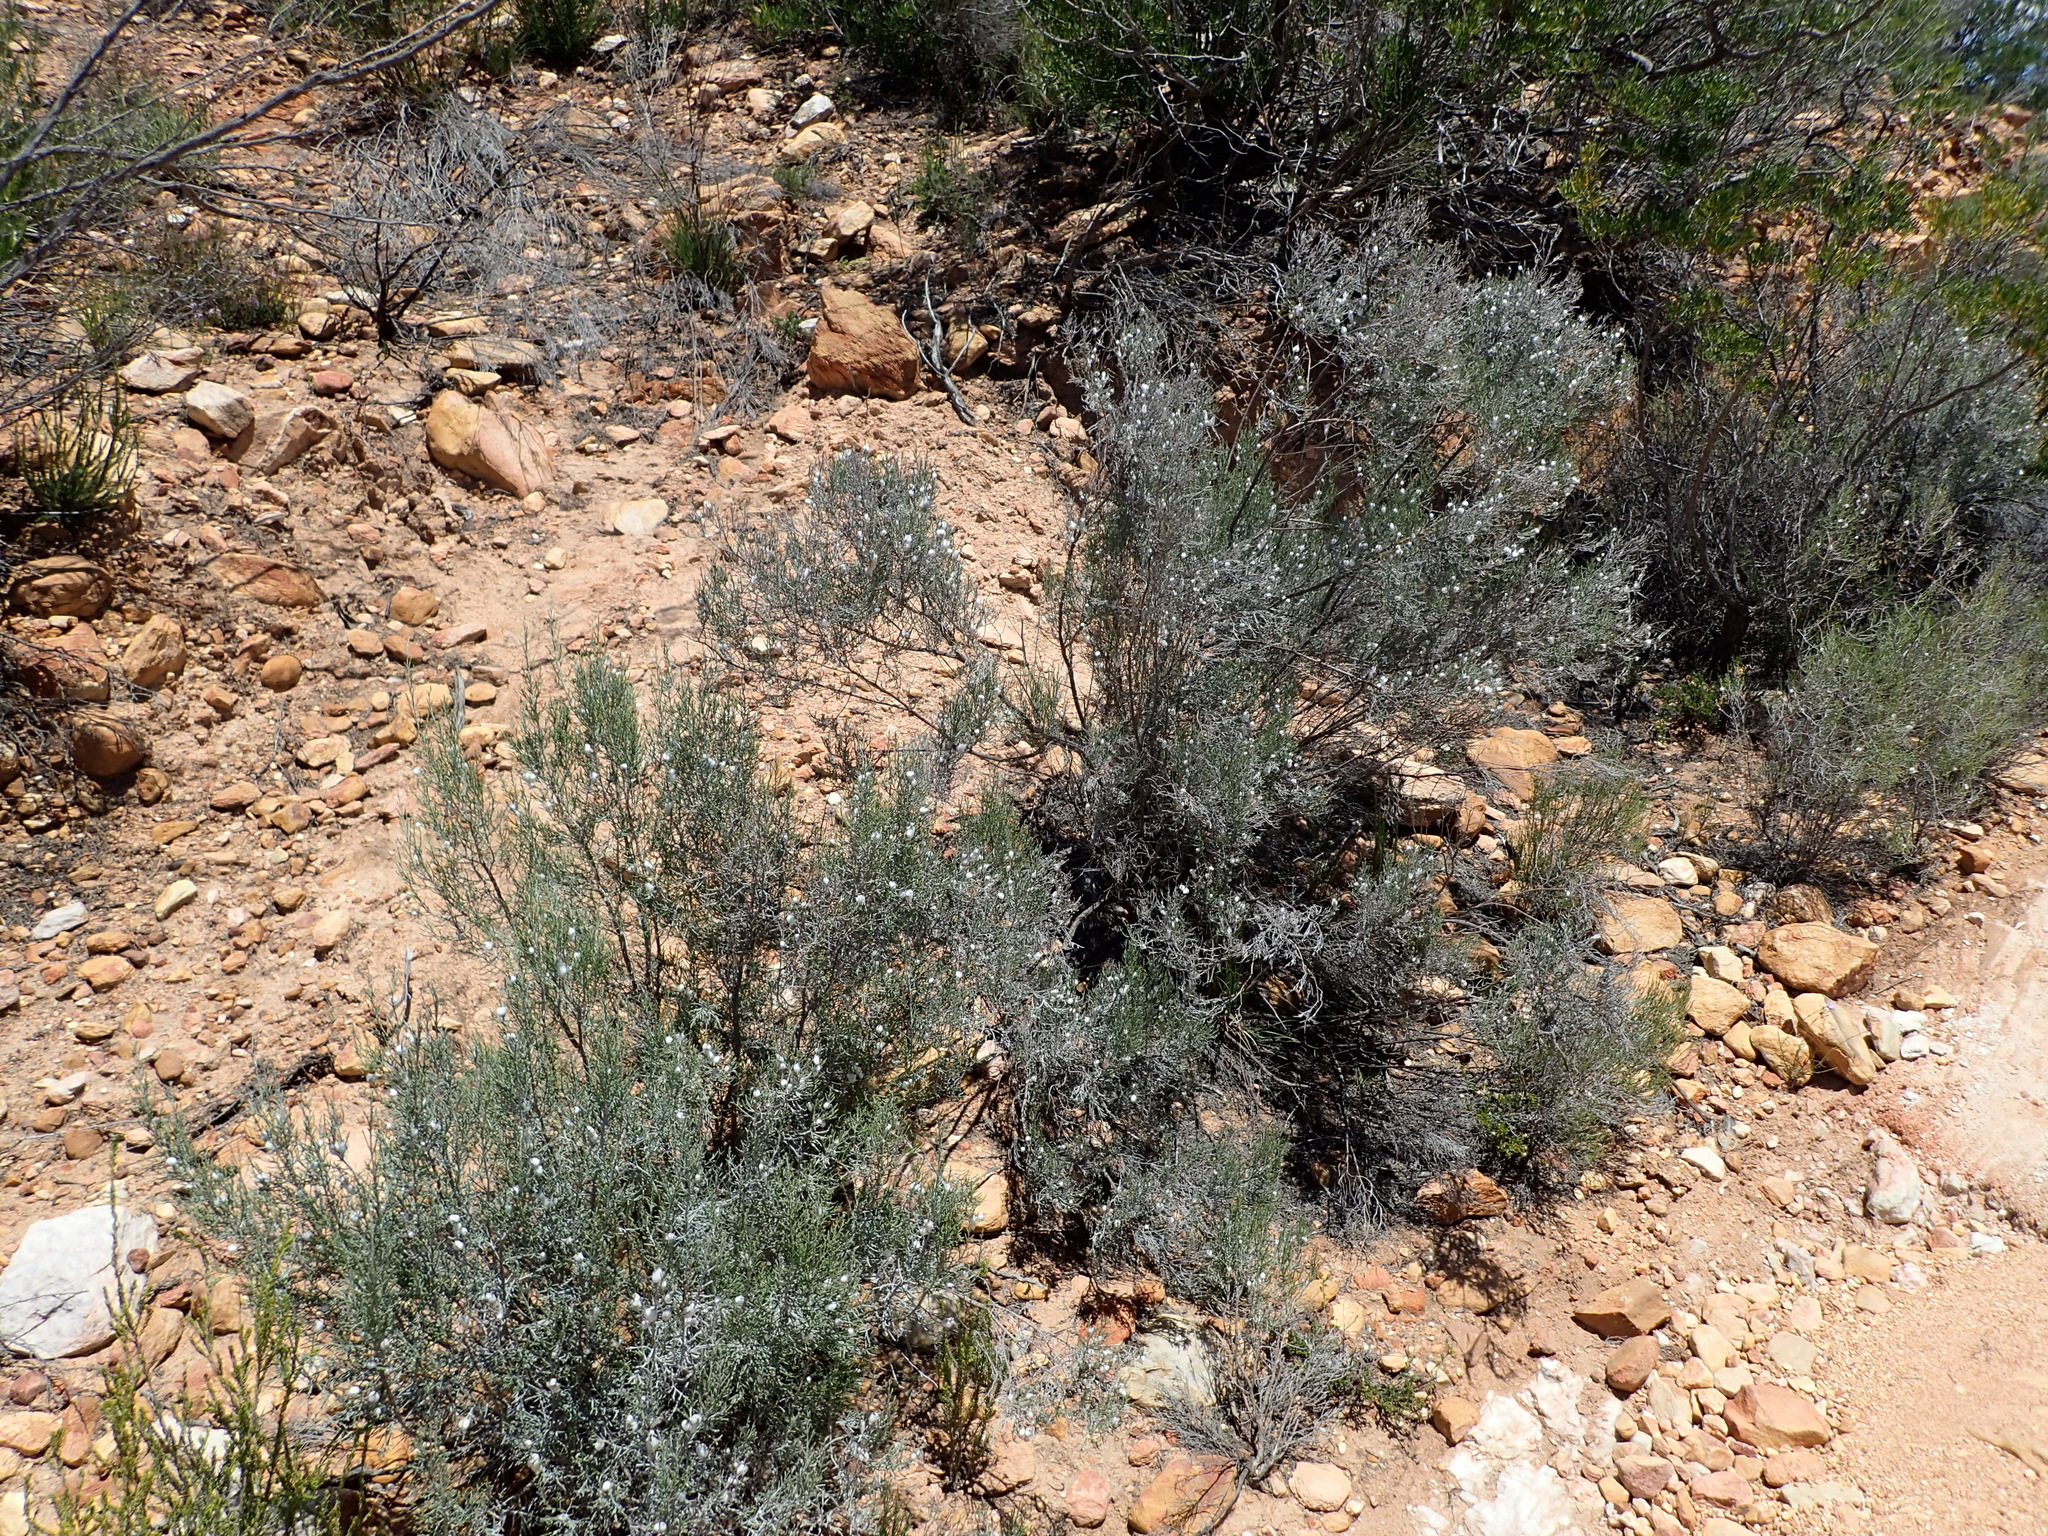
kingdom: Plantae
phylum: Tracheophyta
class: Magnoliopsida
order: Asterales
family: Asteraceae
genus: Dicerothamnus
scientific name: Dicerothamnus rhinocerotis
